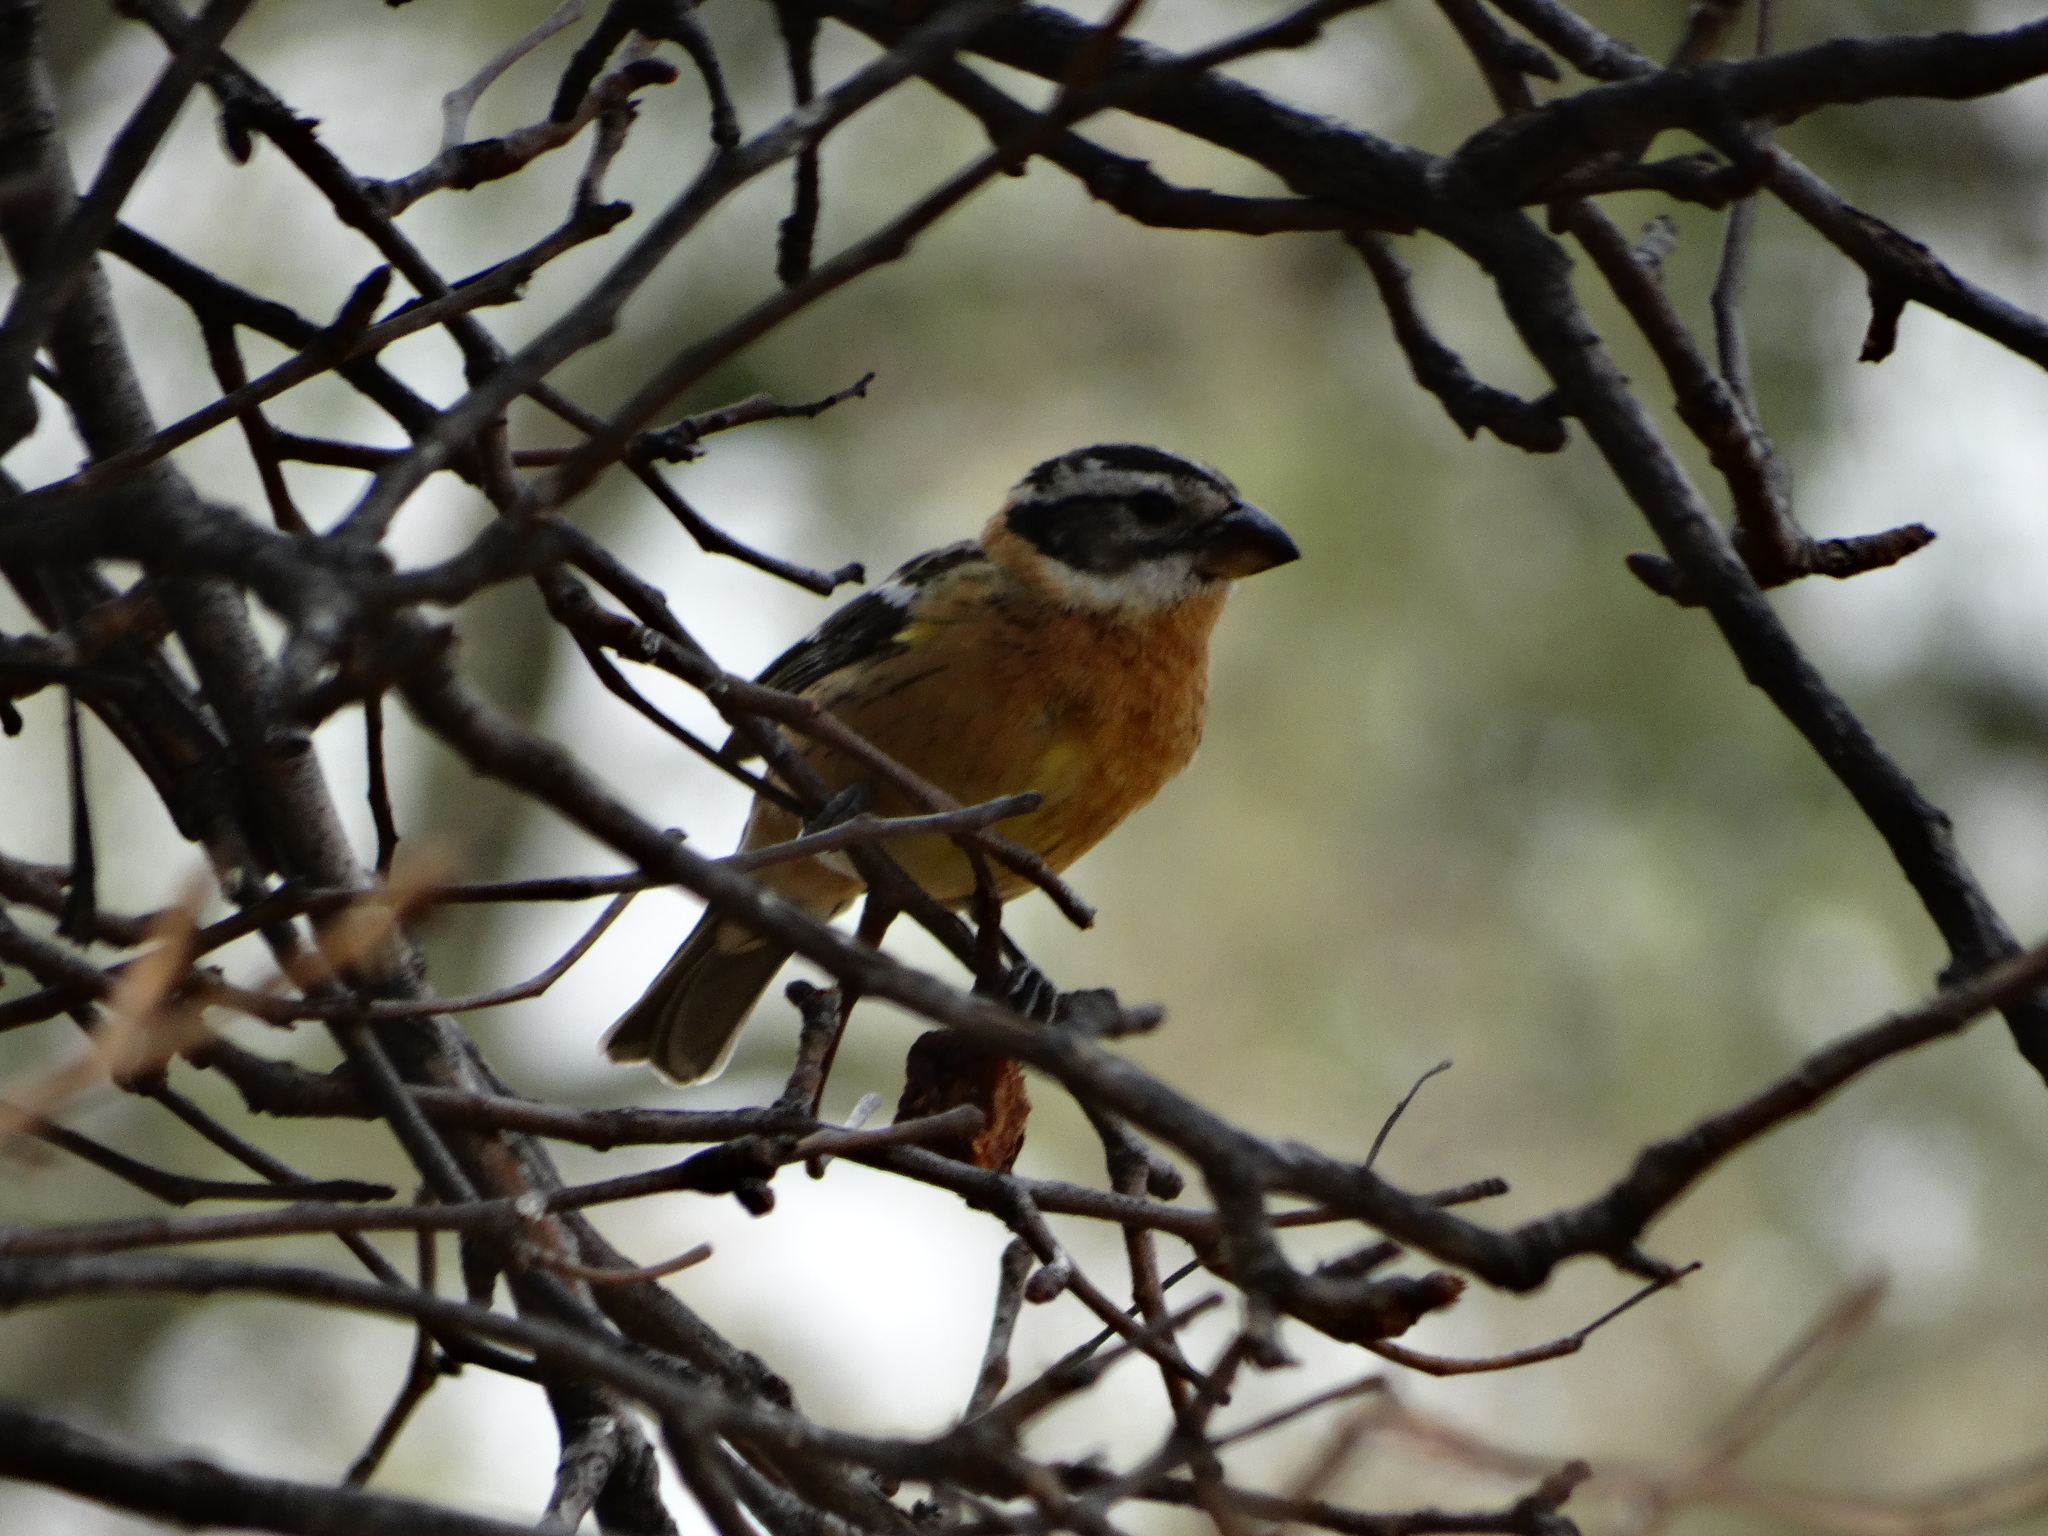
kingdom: Animalia
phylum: Chordata
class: Aves
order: Passeriformes
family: Cardinalidae
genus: Pheucticus
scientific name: Pheucticus melanocephalus
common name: Black-headed grosbeak
